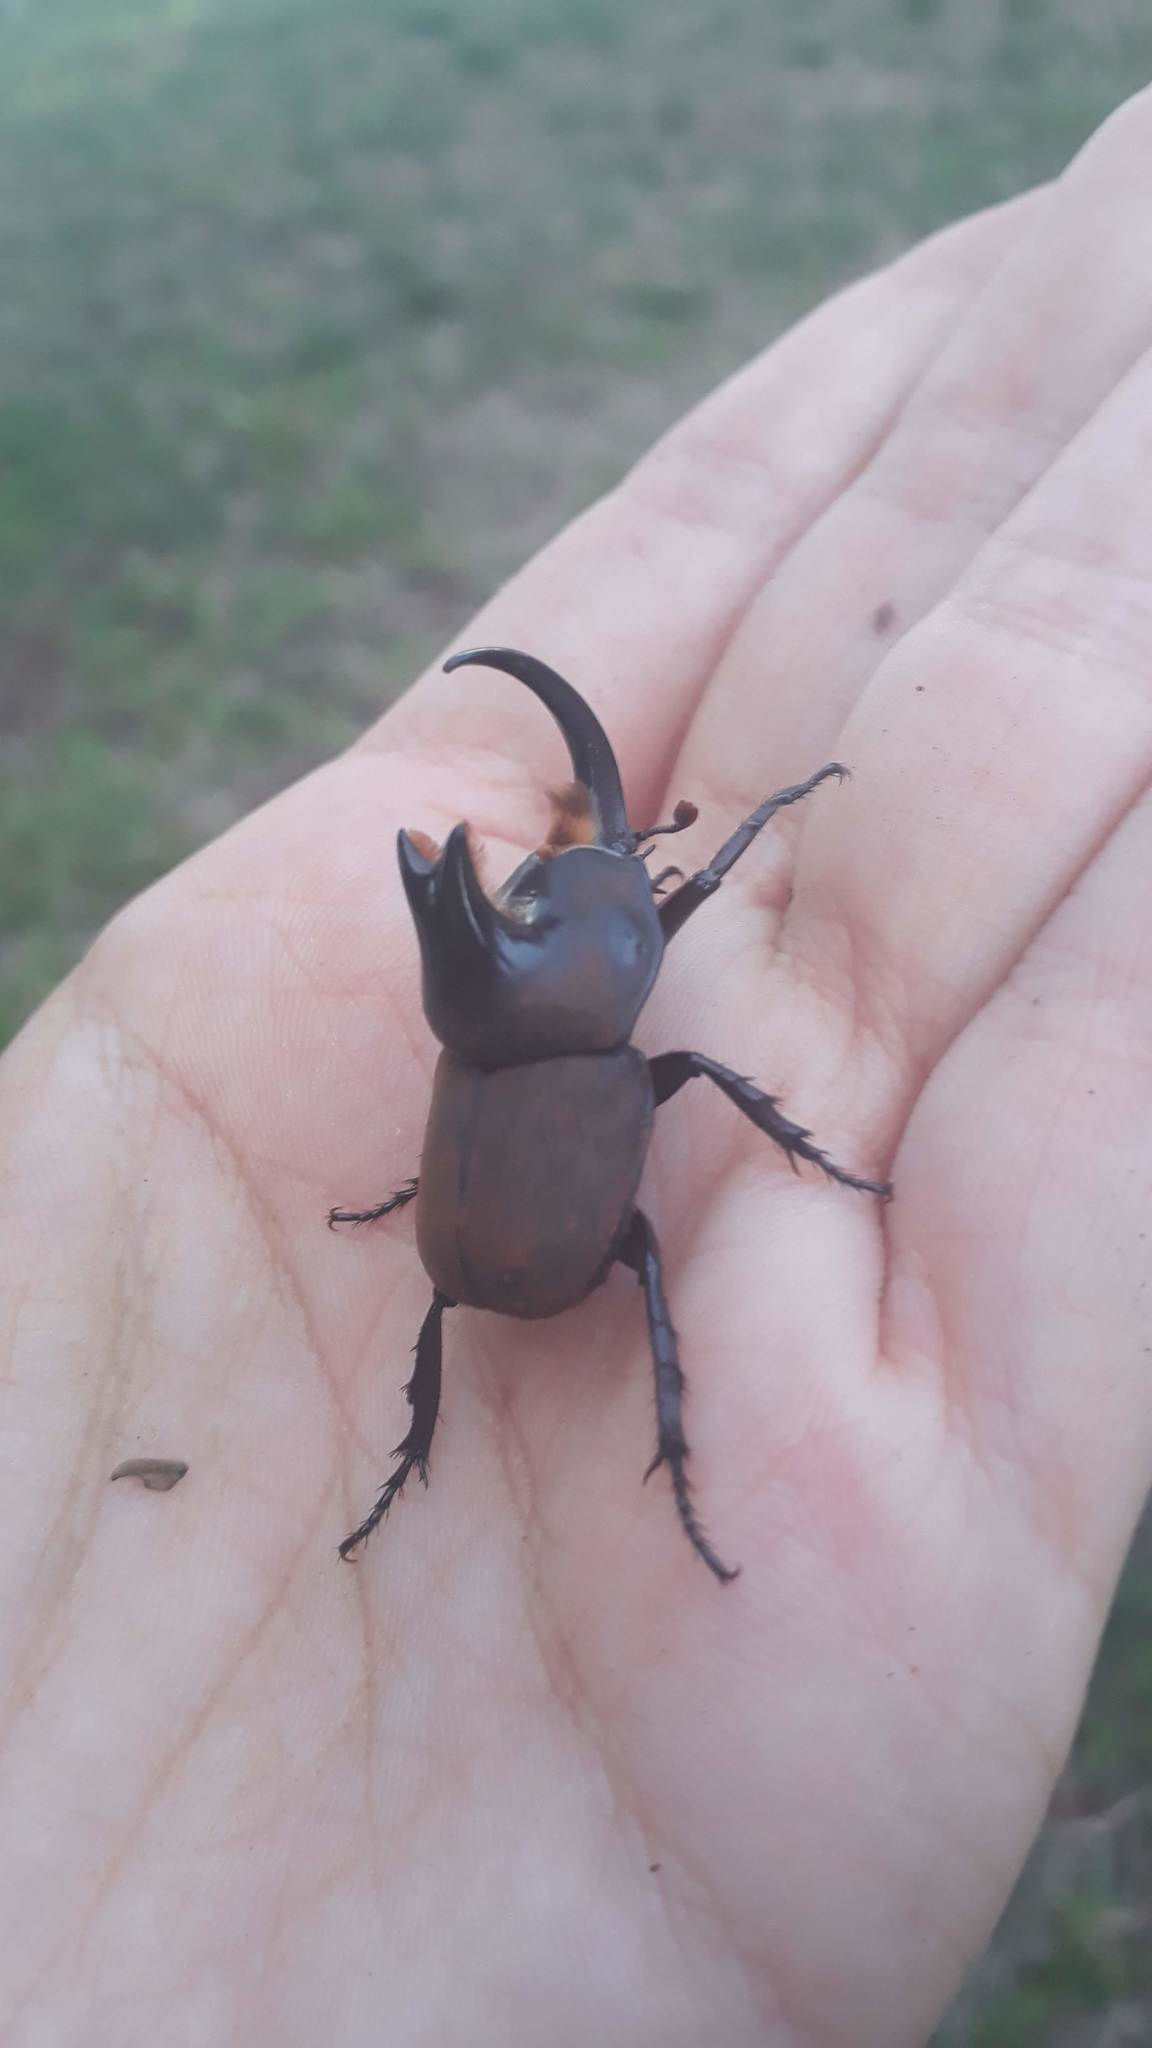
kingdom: Animalia
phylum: Arthropoda
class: Insecta
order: Coleoptera
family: Scarabaeidae
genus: Diloboderus
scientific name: Diloboderus abderus
